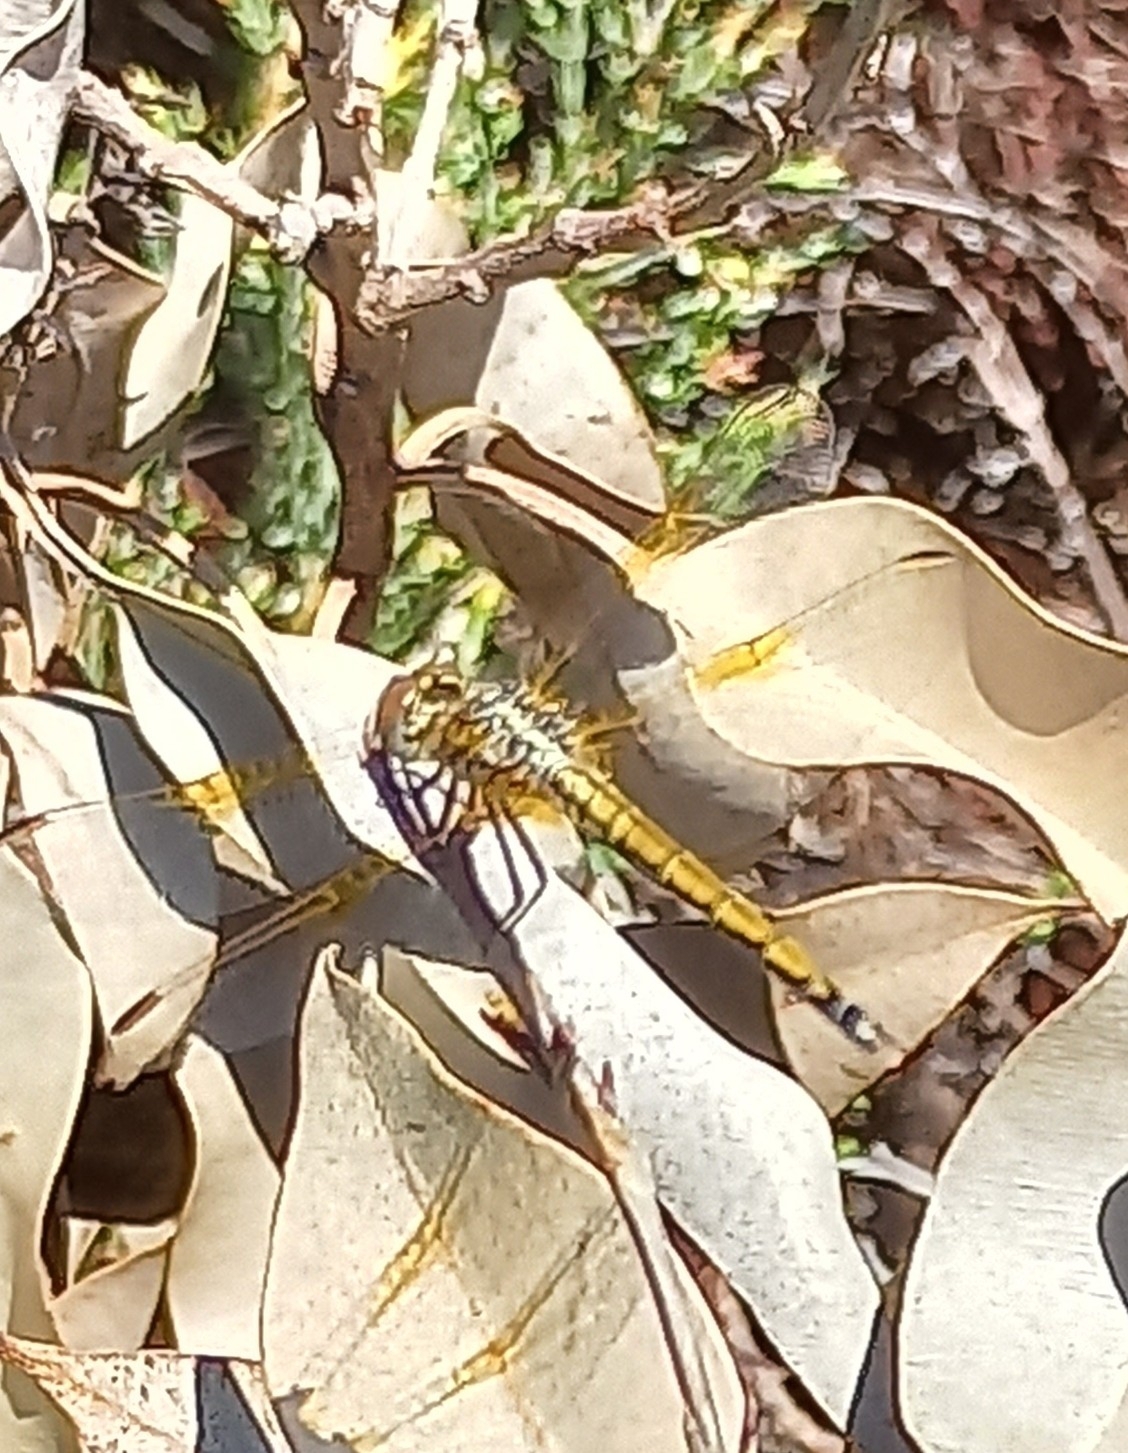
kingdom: Animalia
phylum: Arthropoda
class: Insecta
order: Odonata
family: Libellulidae
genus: Trithemis
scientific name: Trithemis arteriosa
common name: Red-veined dropwing
